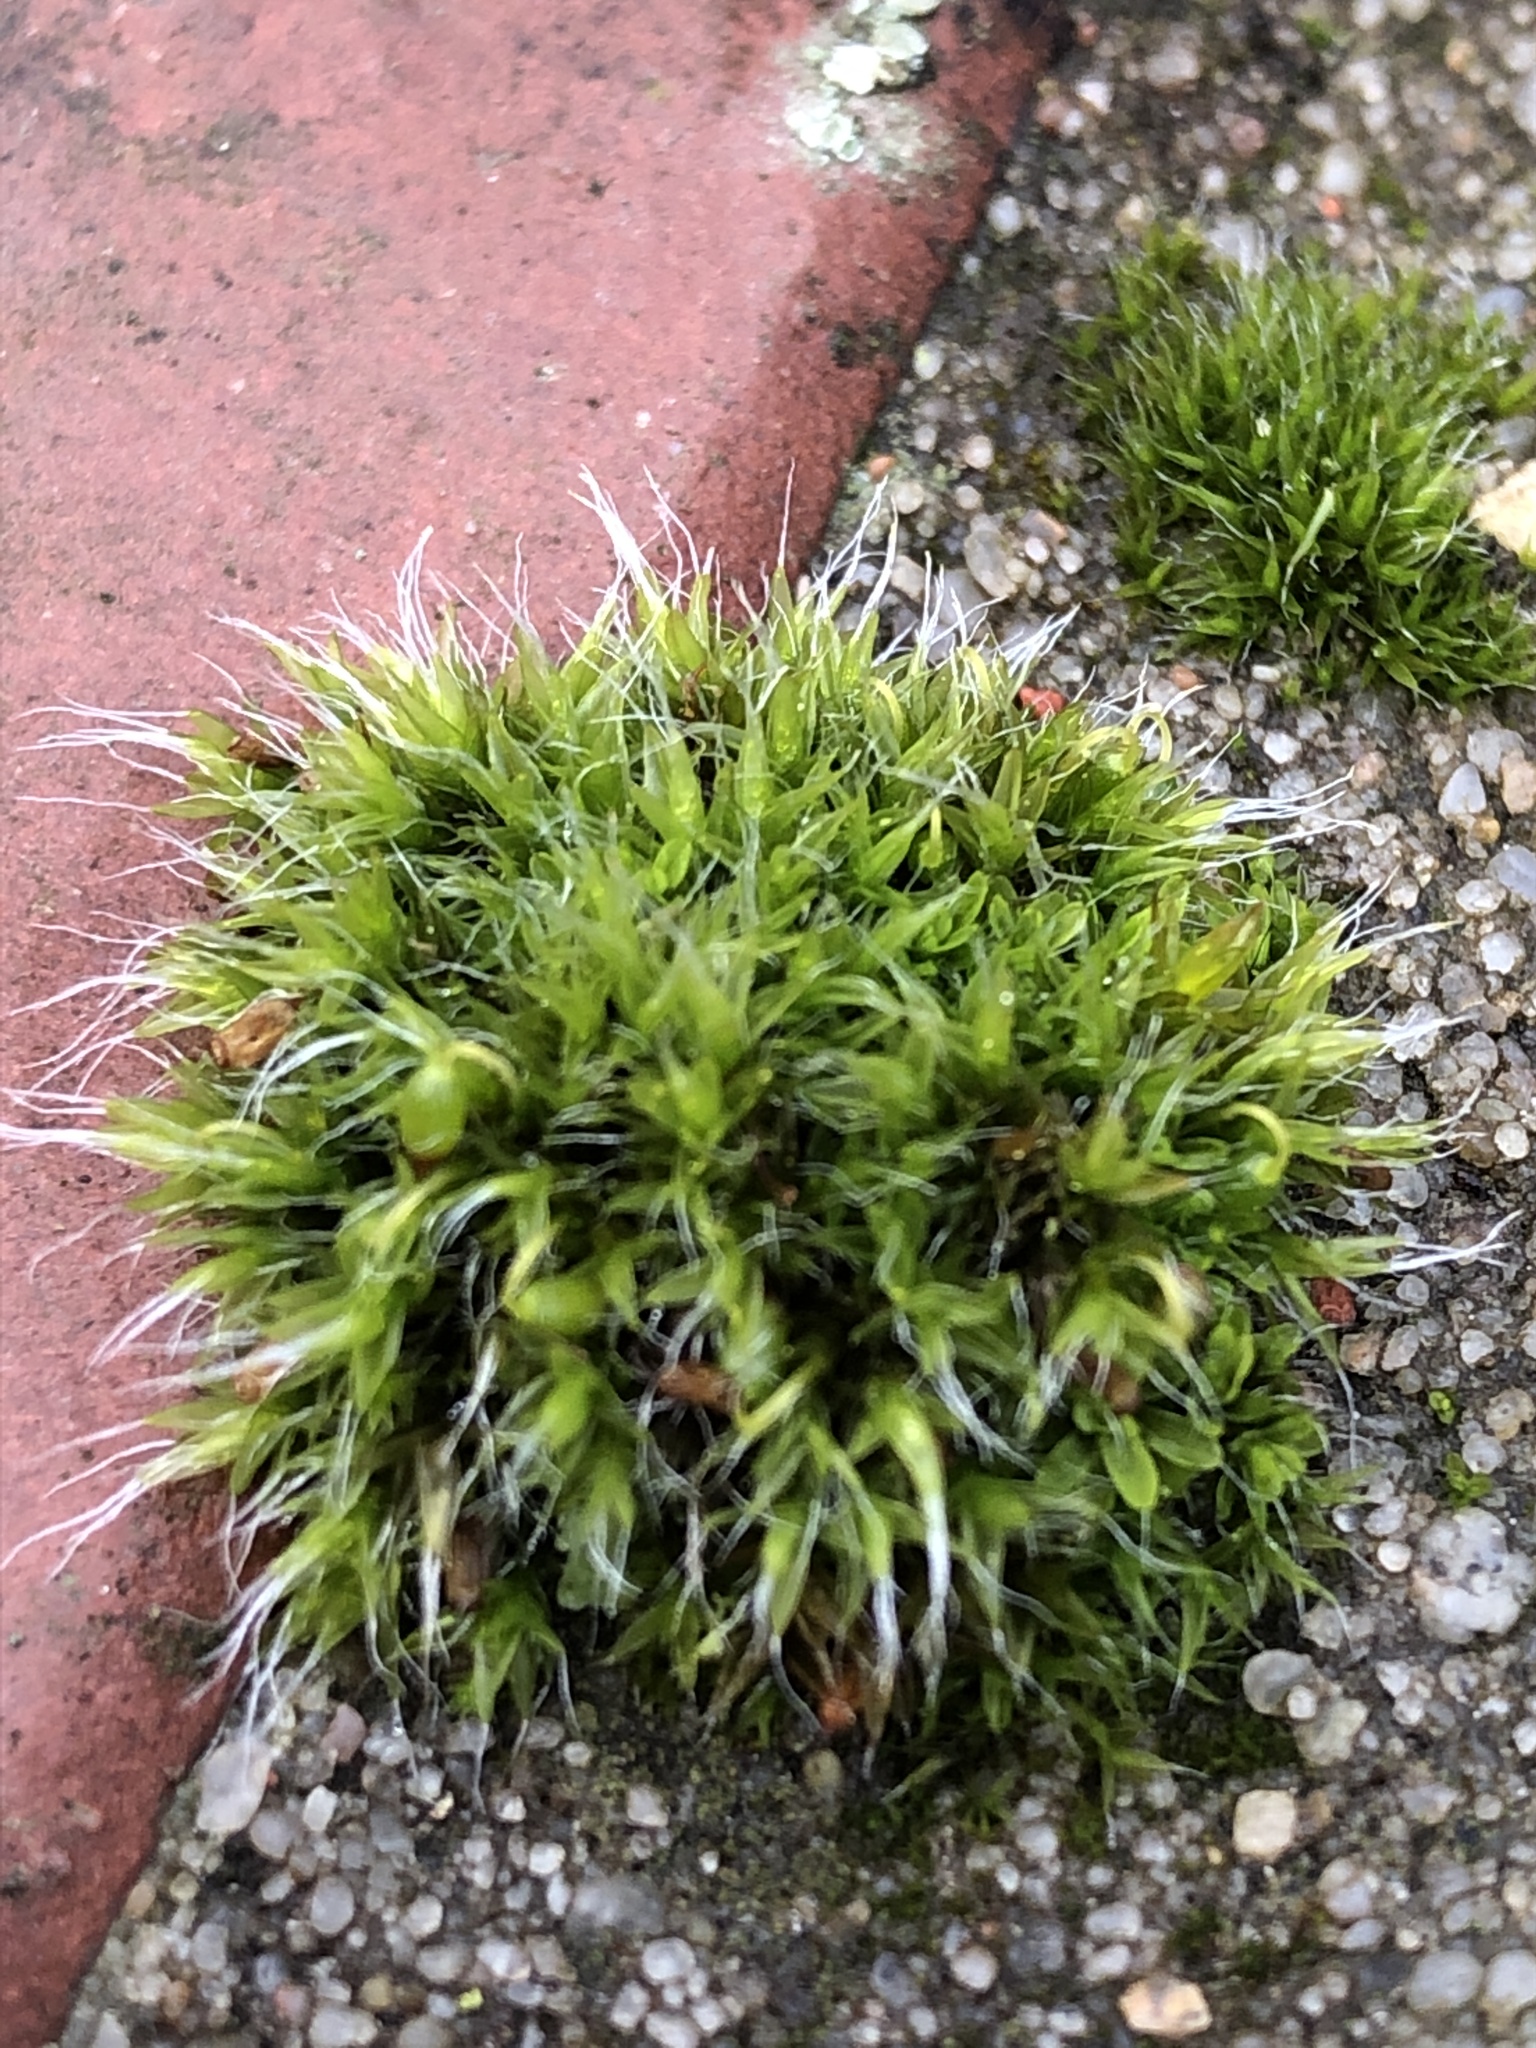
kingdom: Plantae
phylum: Bryophyta
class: Bryopsida
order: Grimmiales
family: Grimmiaceae
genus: Grimmia
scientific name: Grimmia pulvinata
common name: Grey-cushioned grimmia
